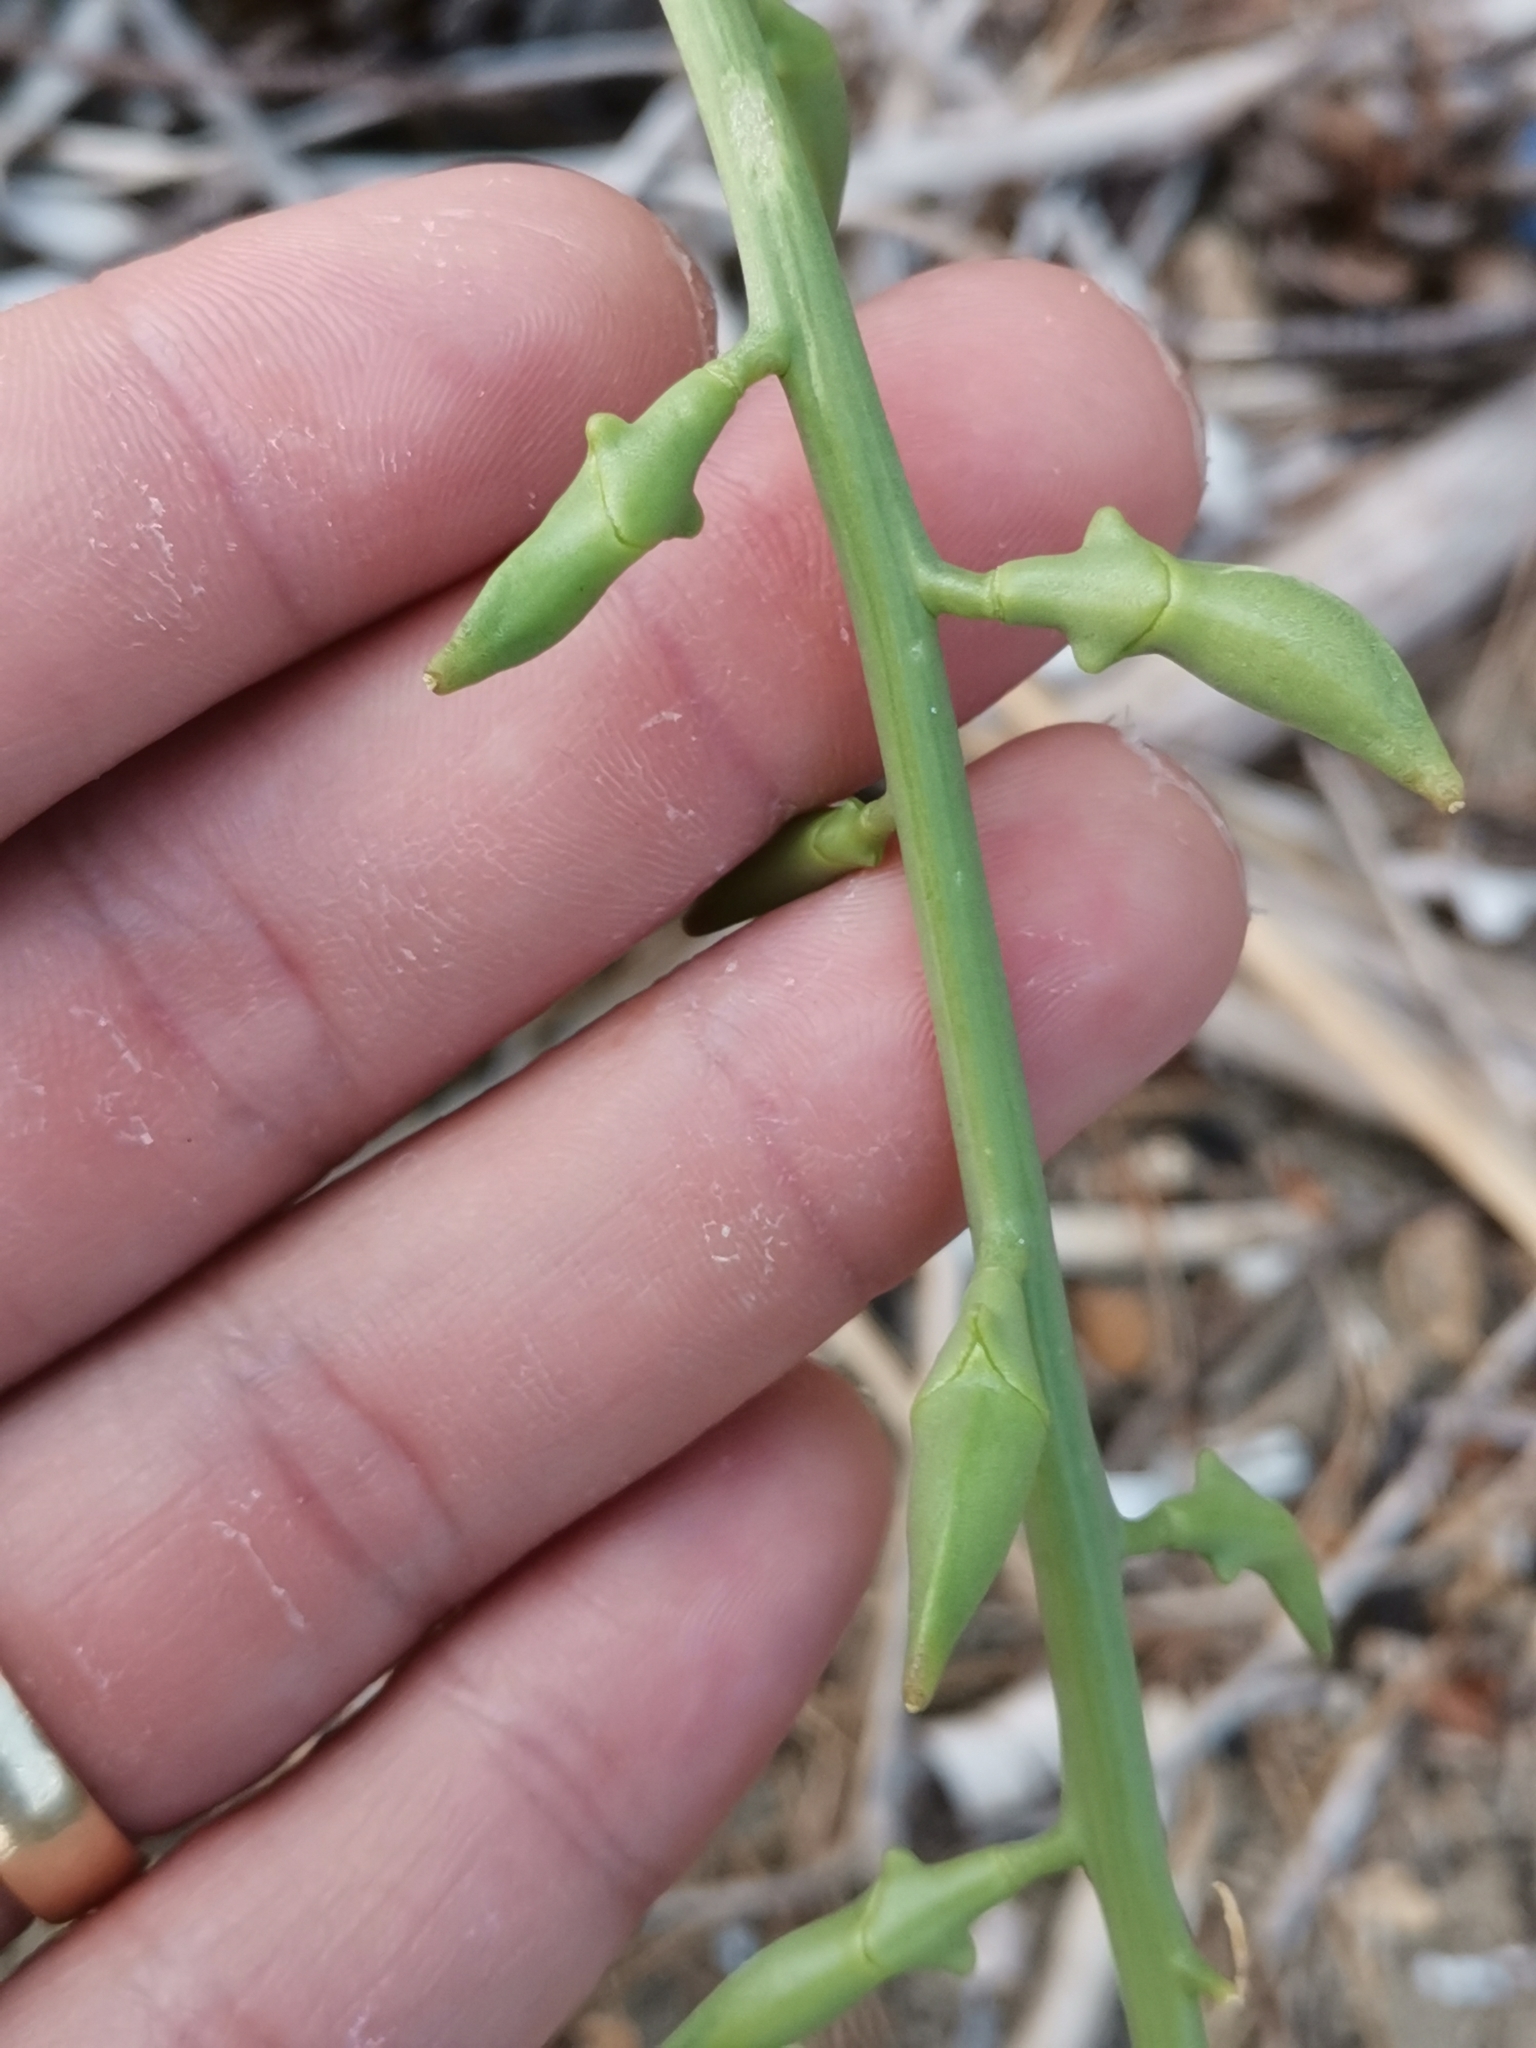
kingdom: Plantae
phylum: Tracheophyta
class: Magnoliopsida
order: Brassicales
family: Brassicaceae
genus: Cakile
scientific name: Cakile maritima
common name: Sea rocket
